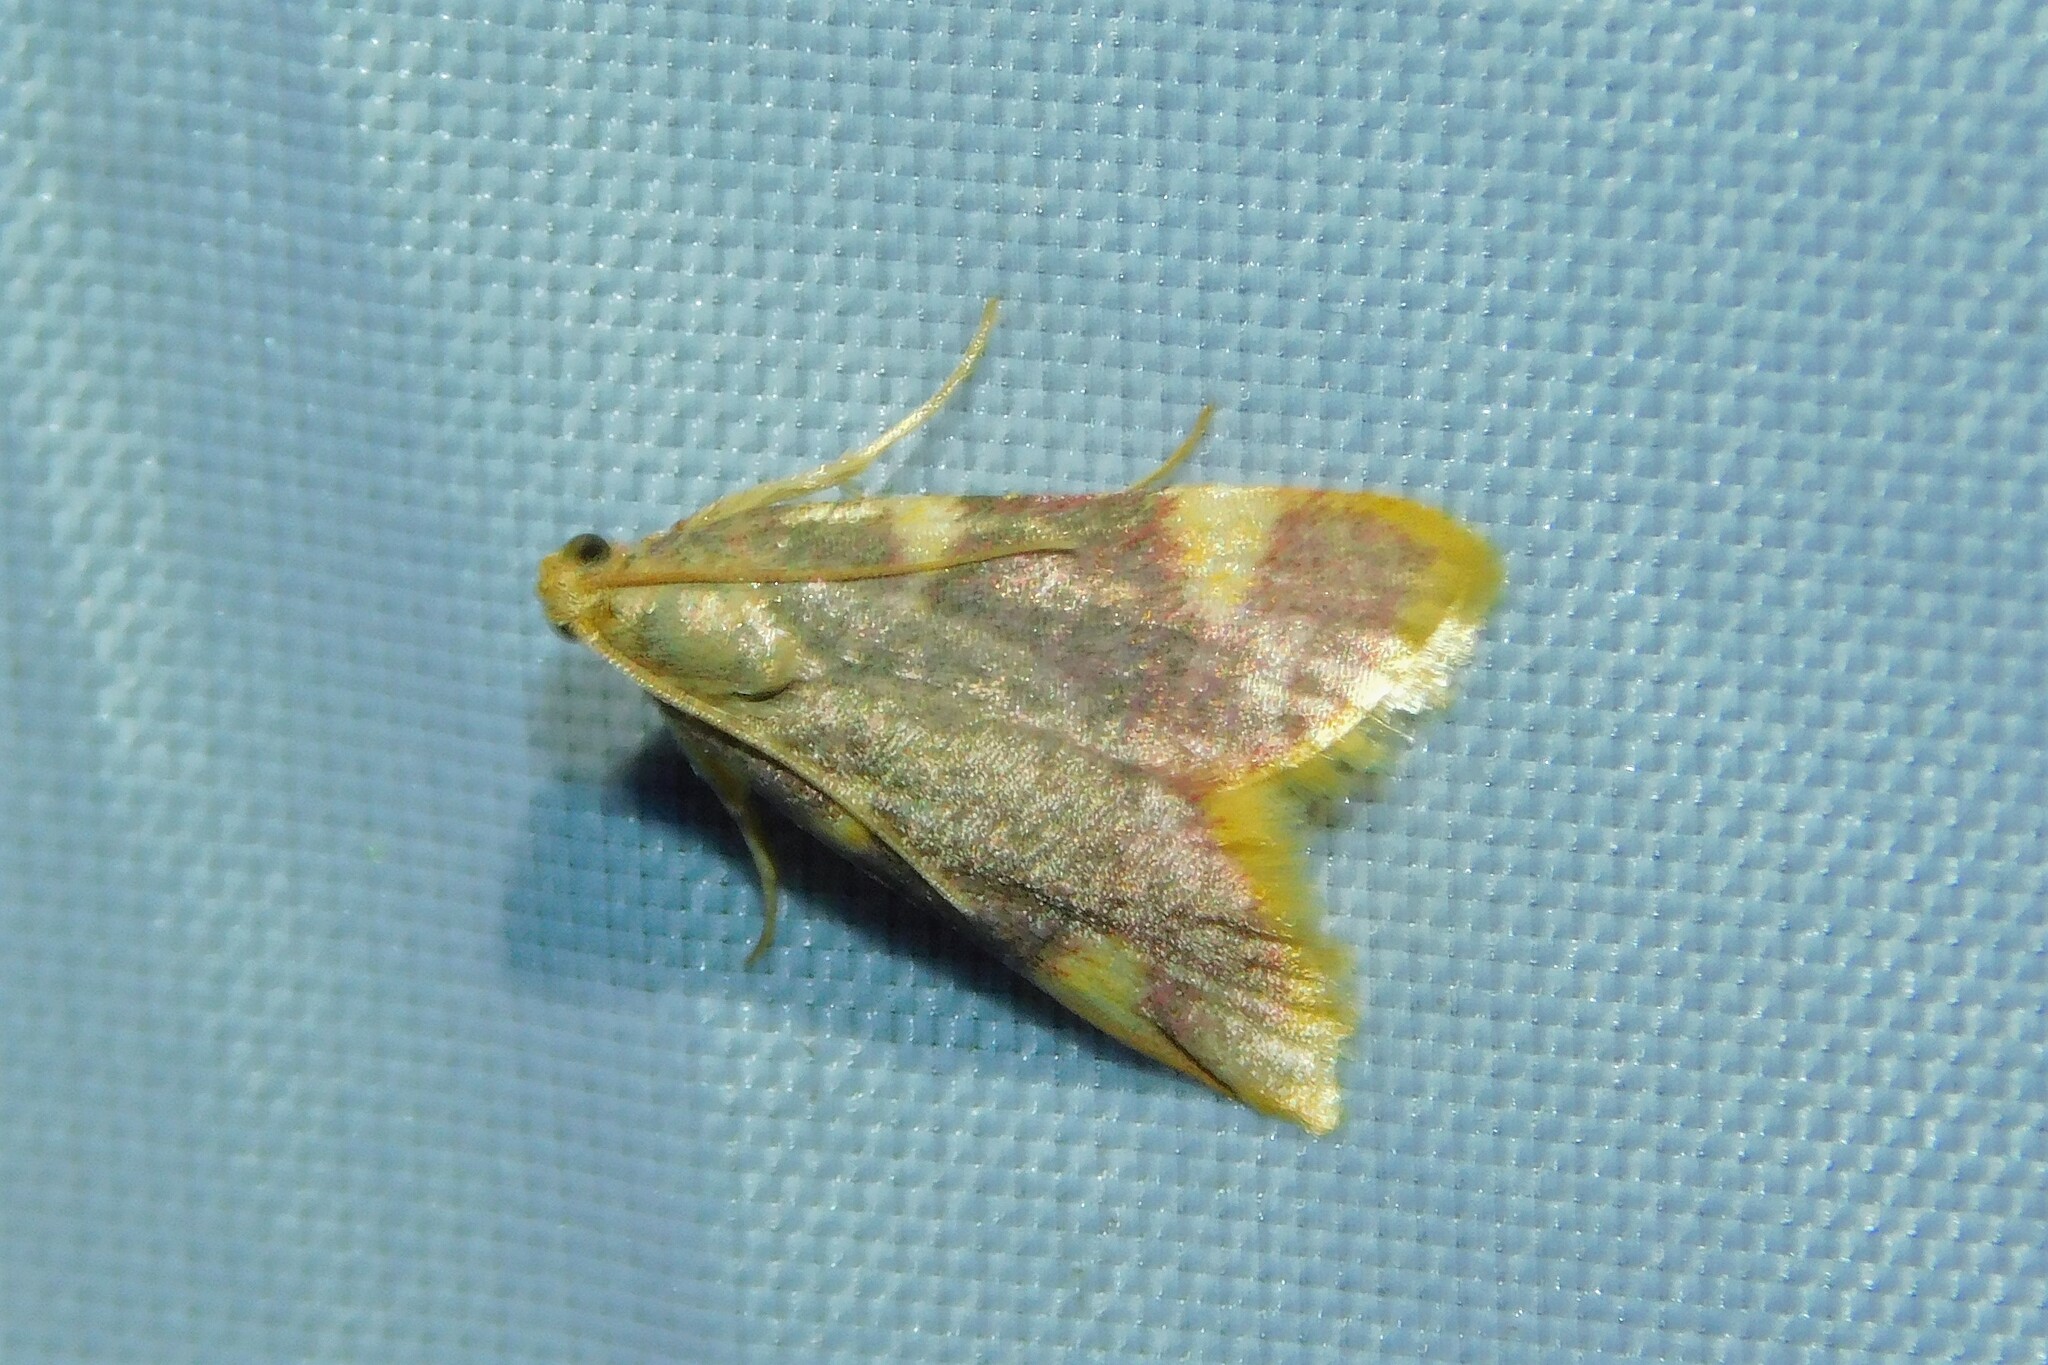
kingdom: Animalia
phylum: Arthropoda
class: Insecta
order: Lepidoptera
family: Pyralidae
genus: Hypsopygia
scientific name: Hypsopygia costalis
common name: Gold triangle
